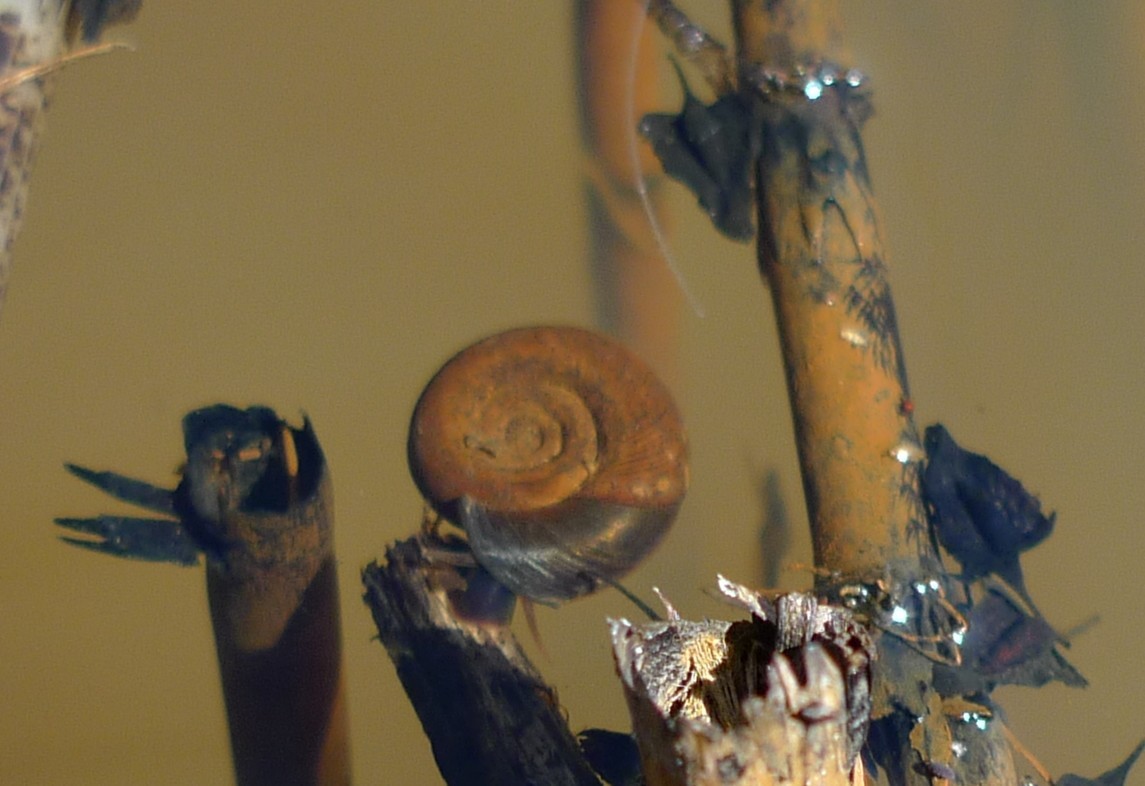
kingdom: Animalia
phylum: Mollusca
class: Gastropoda
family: Planorbidae
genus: Planorbarius
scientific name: Planorbarius corneus
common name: Great ramshorn
